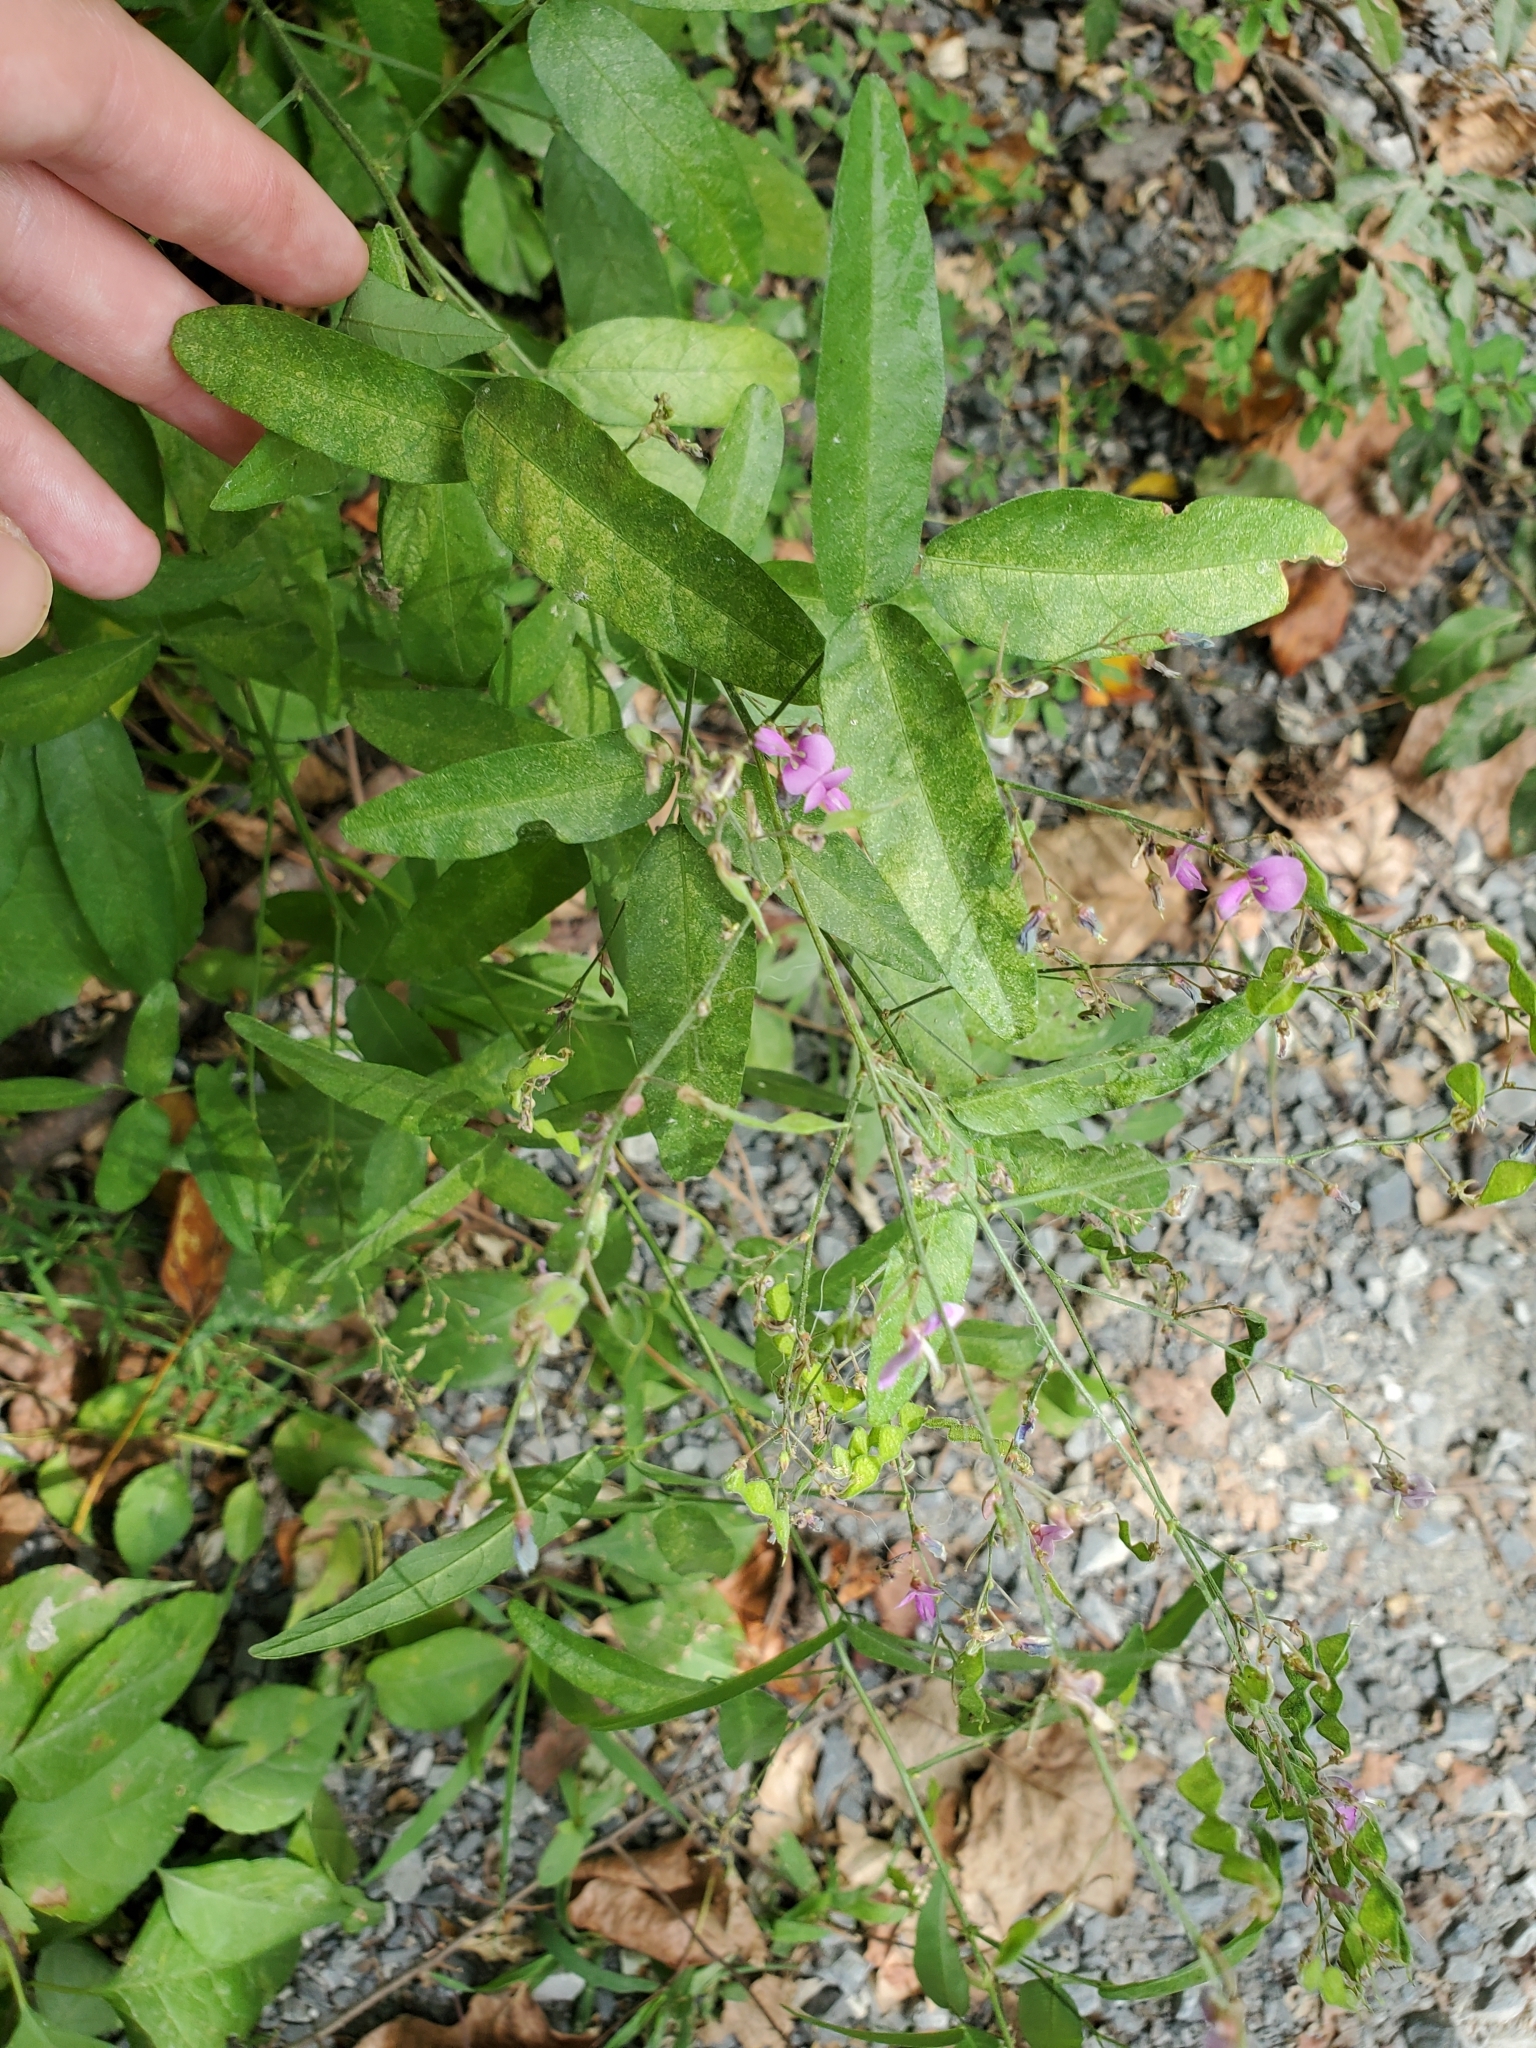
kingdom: Plantae
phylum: Tracheophyta
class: Magnoliopsida
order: Fabales
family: Fabaceae
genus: Desmodium
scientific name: Desmodium paniculatum
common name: Panicled tick-clover
